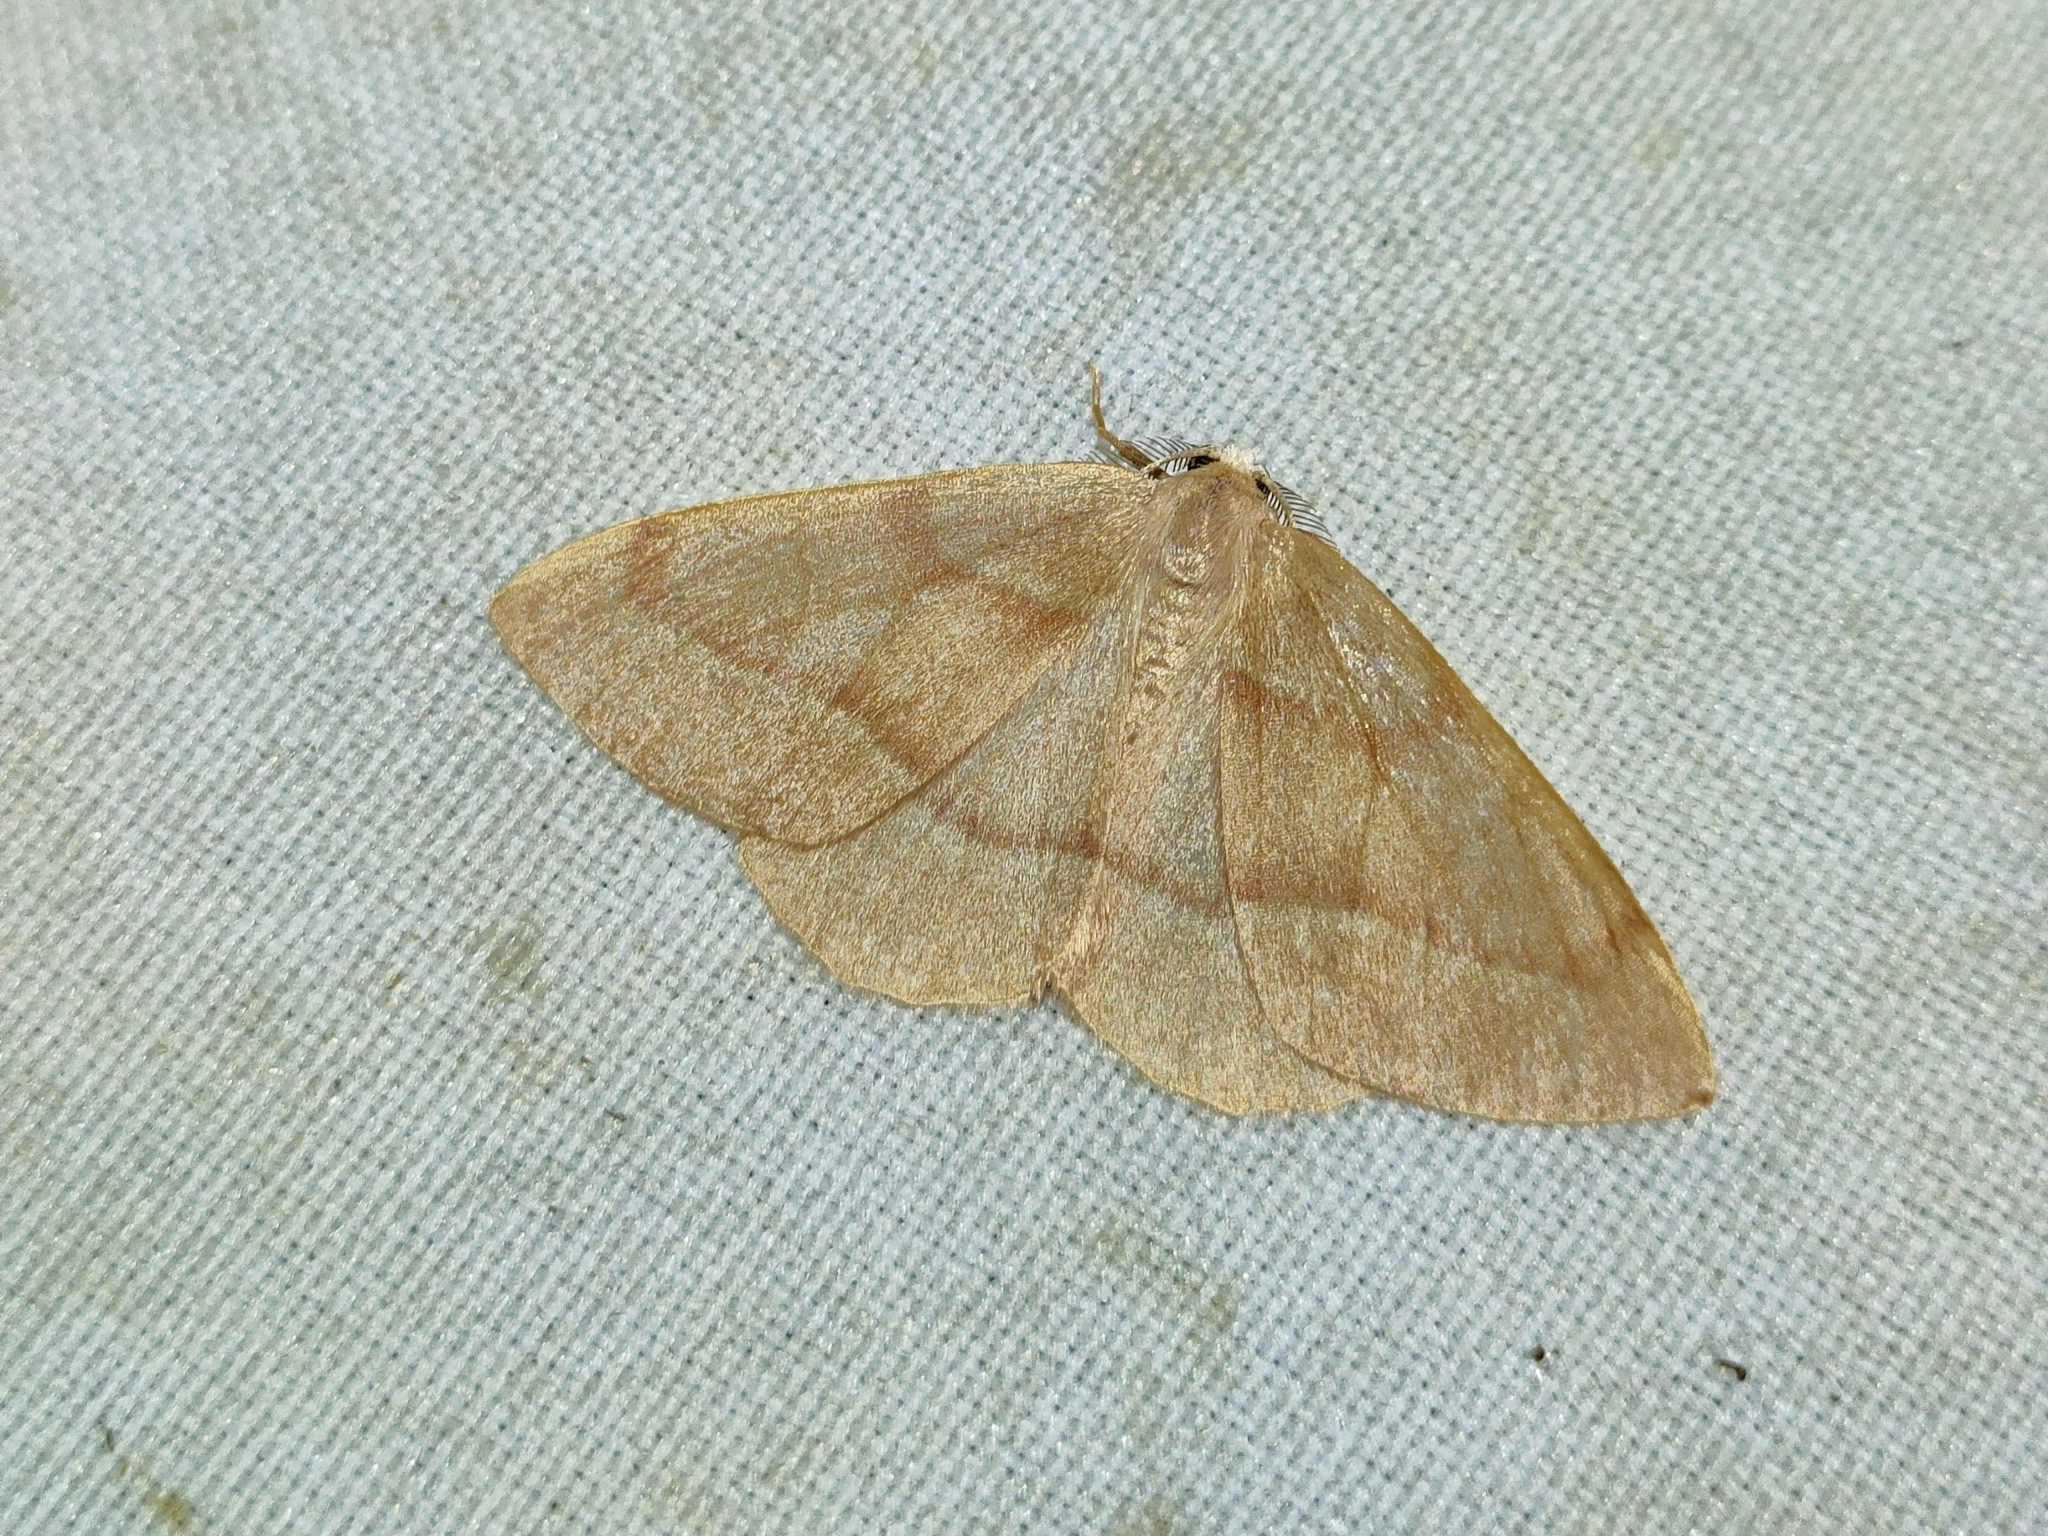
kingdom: Animalia
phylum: Arthropoda
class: Insecta
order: Lepidoptera
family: Geometridae
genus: Hylaea
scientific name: Hylaea fasciaria
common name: Barred red
